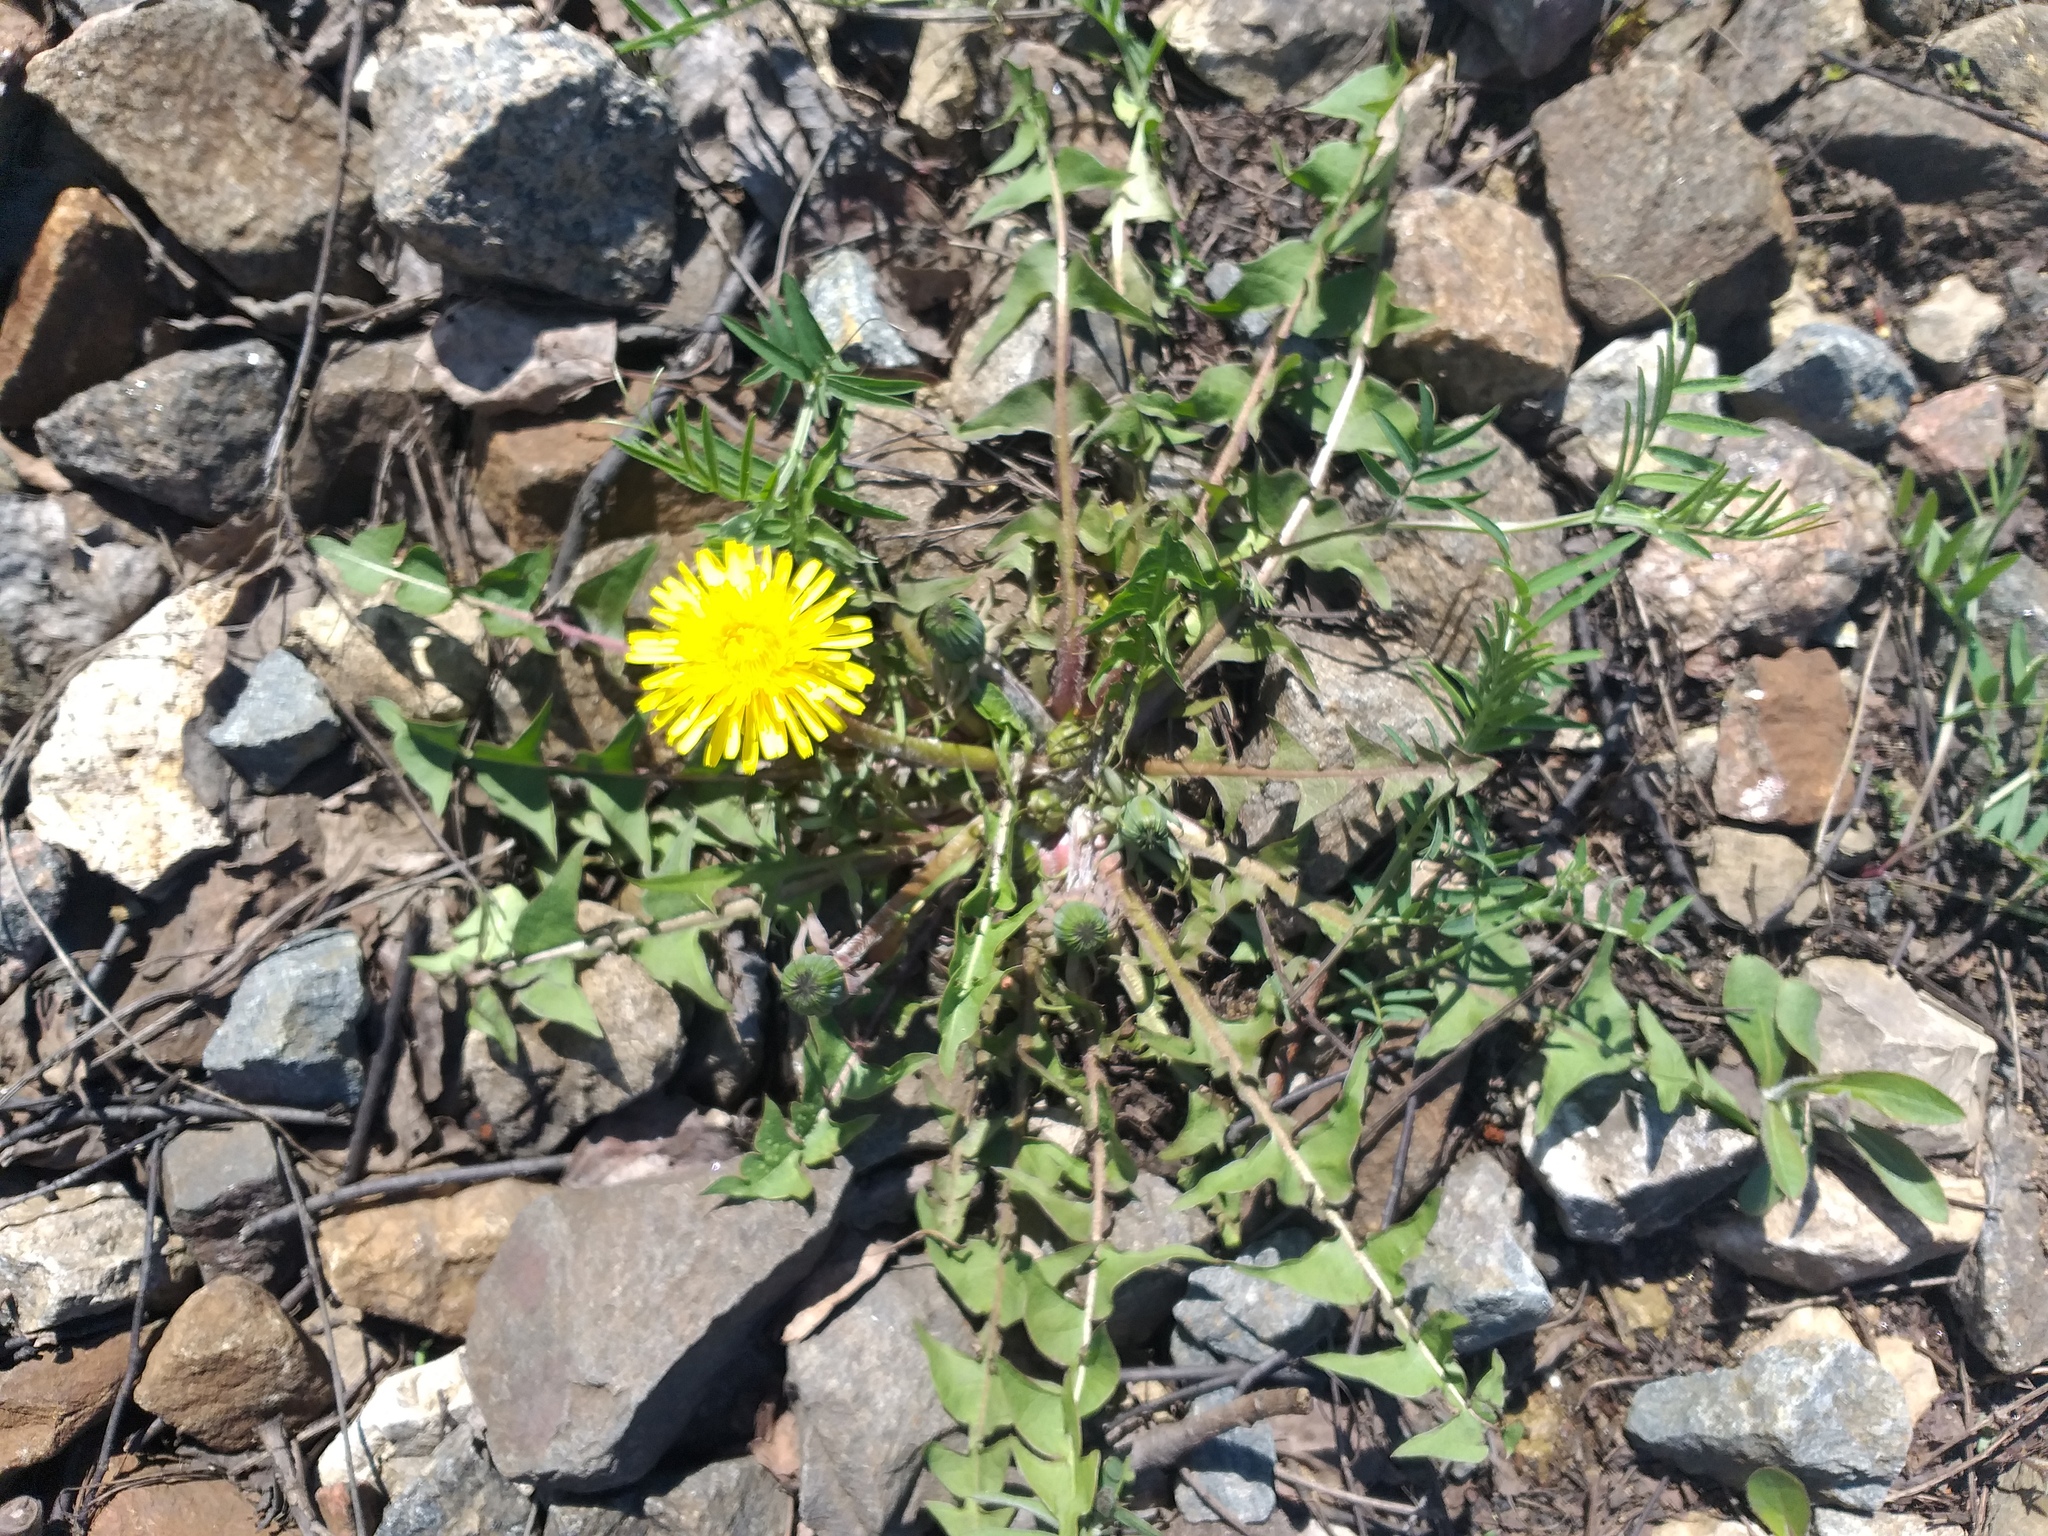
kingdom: Plantae
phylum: Tracheophyta
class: Magnoliopsida
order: Asterales
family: Asteraceae
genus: Taraxacum
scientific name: Taraxacum officinale
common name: Common dandelion
